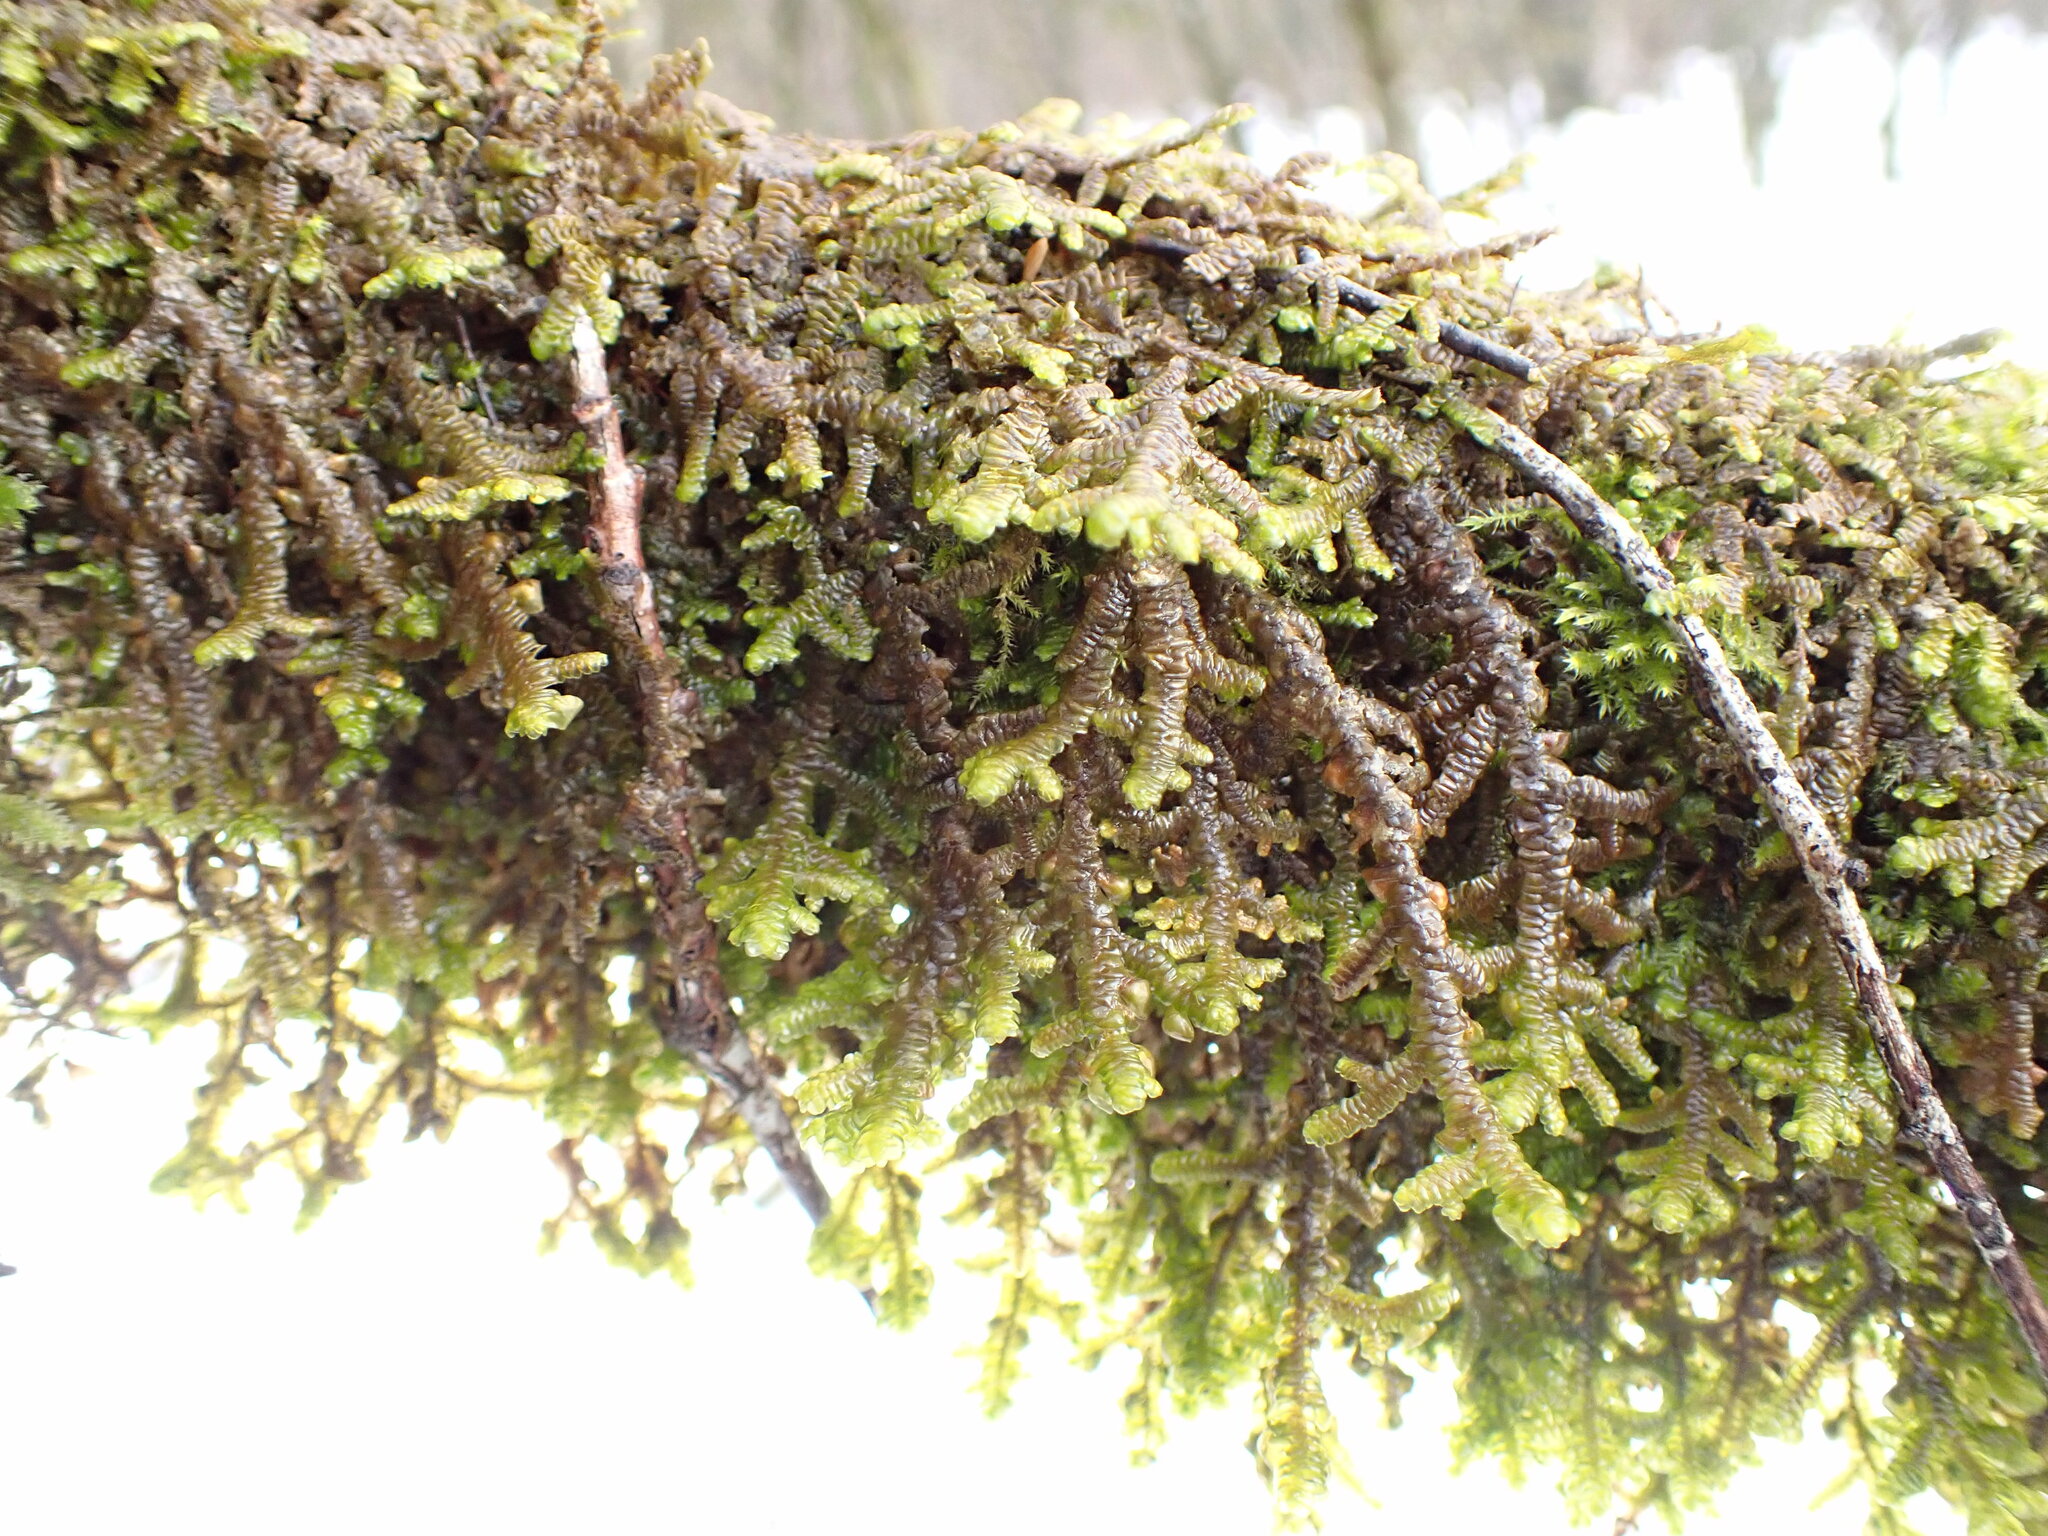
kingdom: Plantae
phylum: Marchantiophyta
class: Jungermanniopsida
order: Porellales
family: Porellaceae
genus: Porella
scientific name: Porella navicularis
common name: Tree ruffle liverwort
